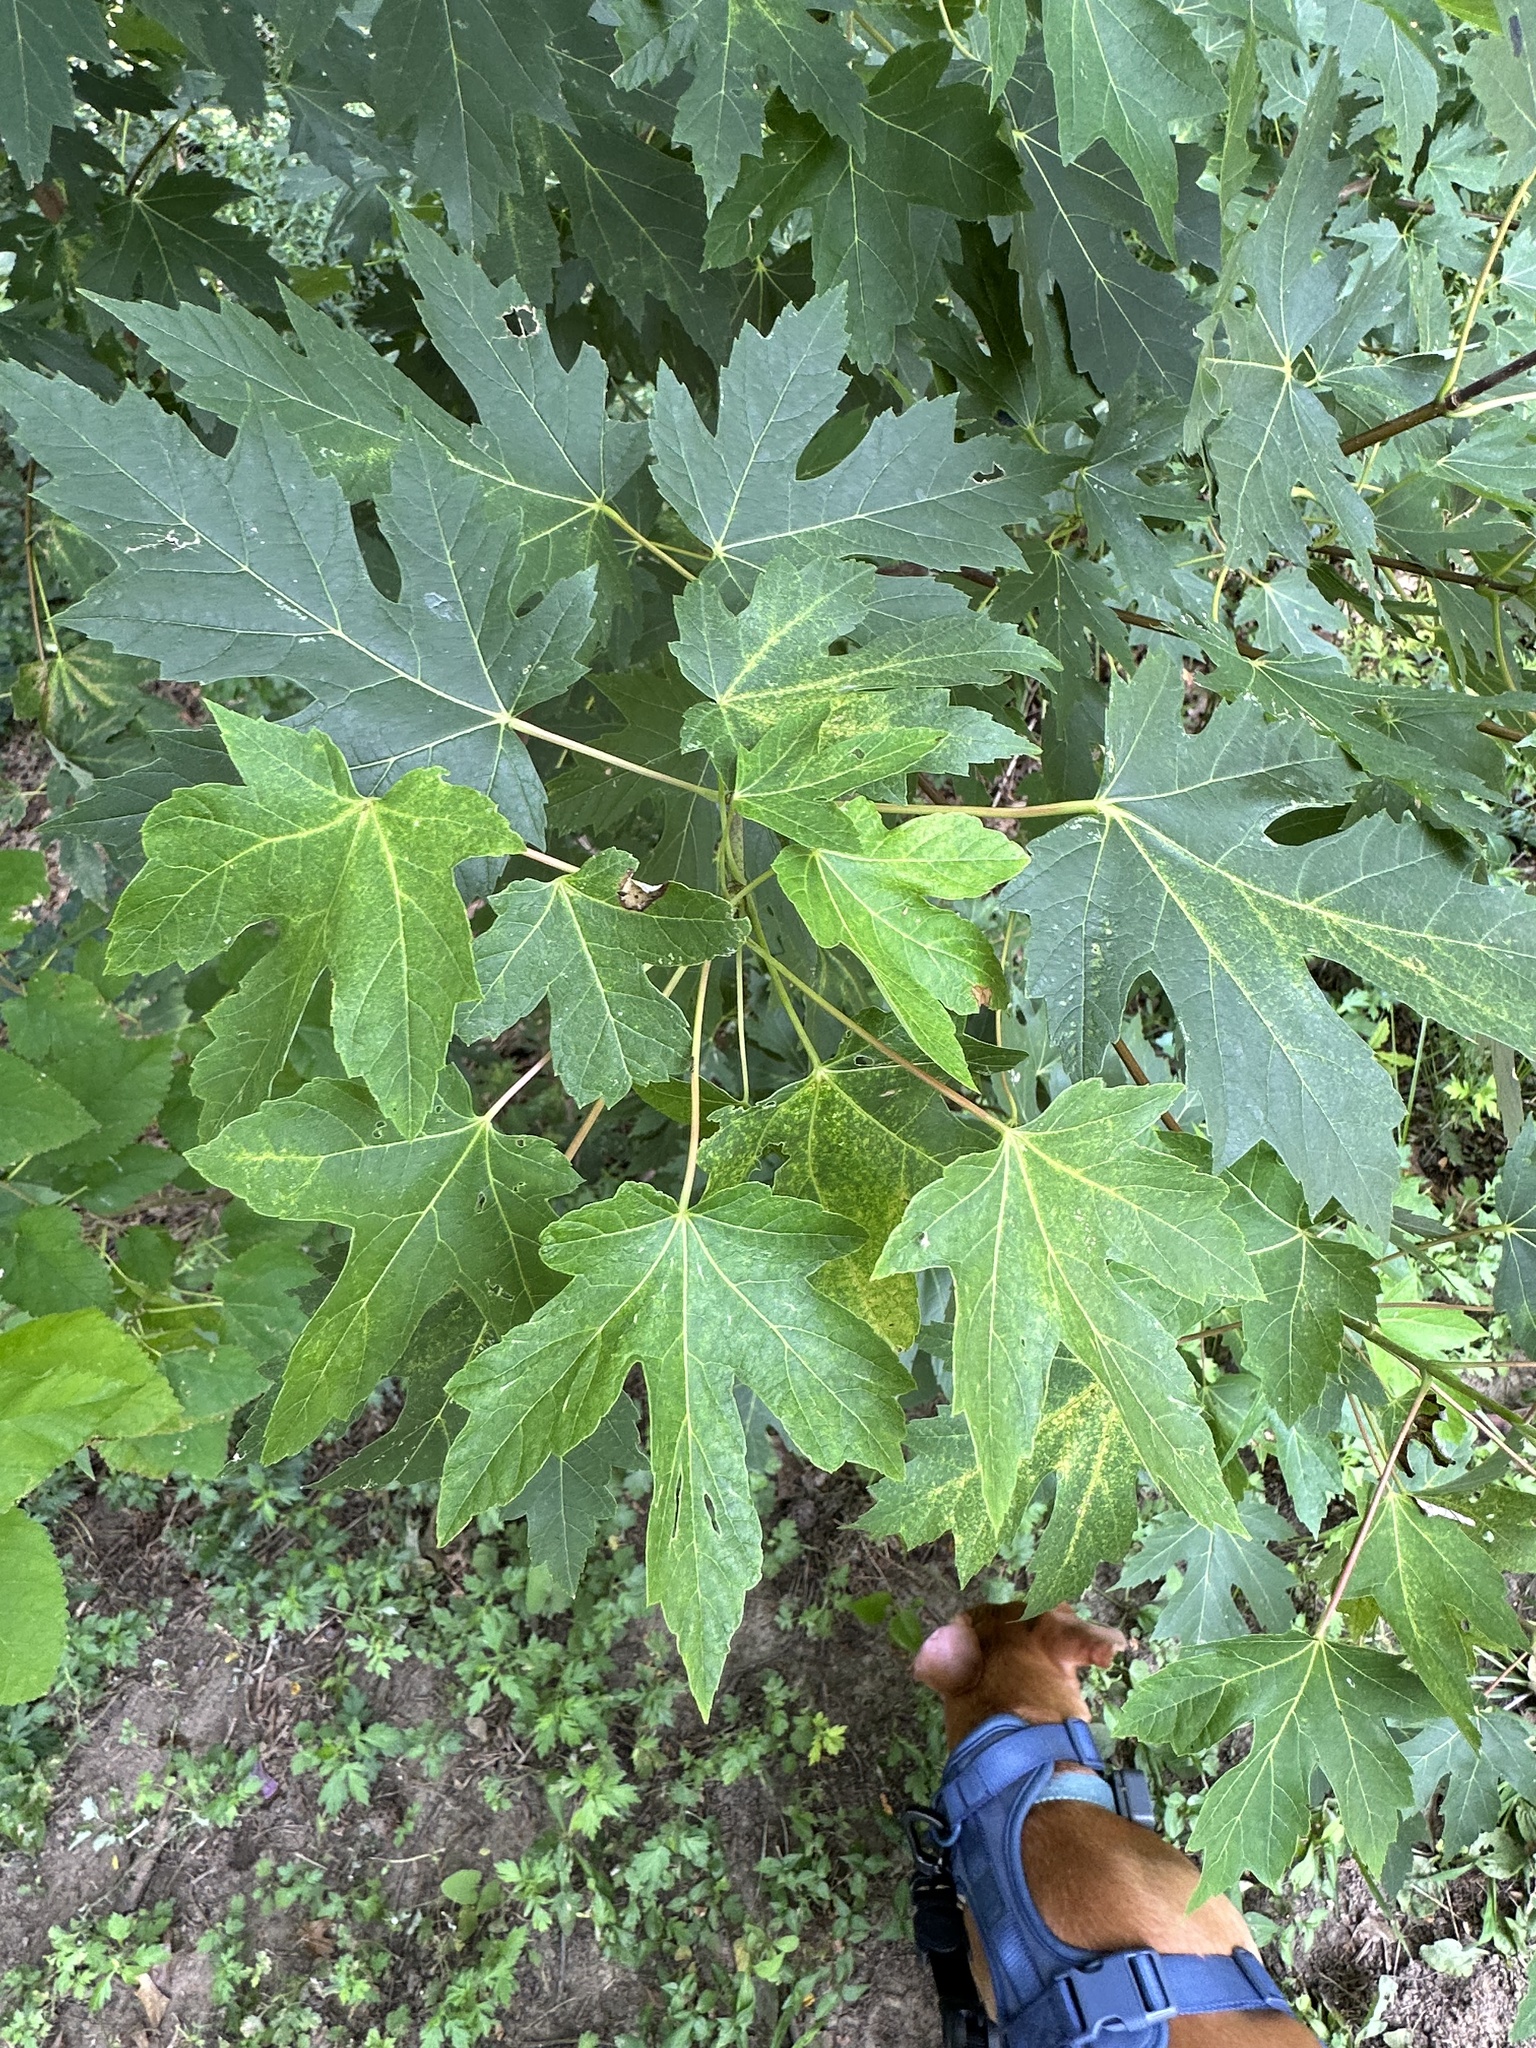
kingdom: Plantae
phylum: Tracheophyta
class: Magnoliopsida
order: Sapindales
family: Sapindaceae
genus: Acer
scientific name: Acer saccharinum
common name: Silver maple
